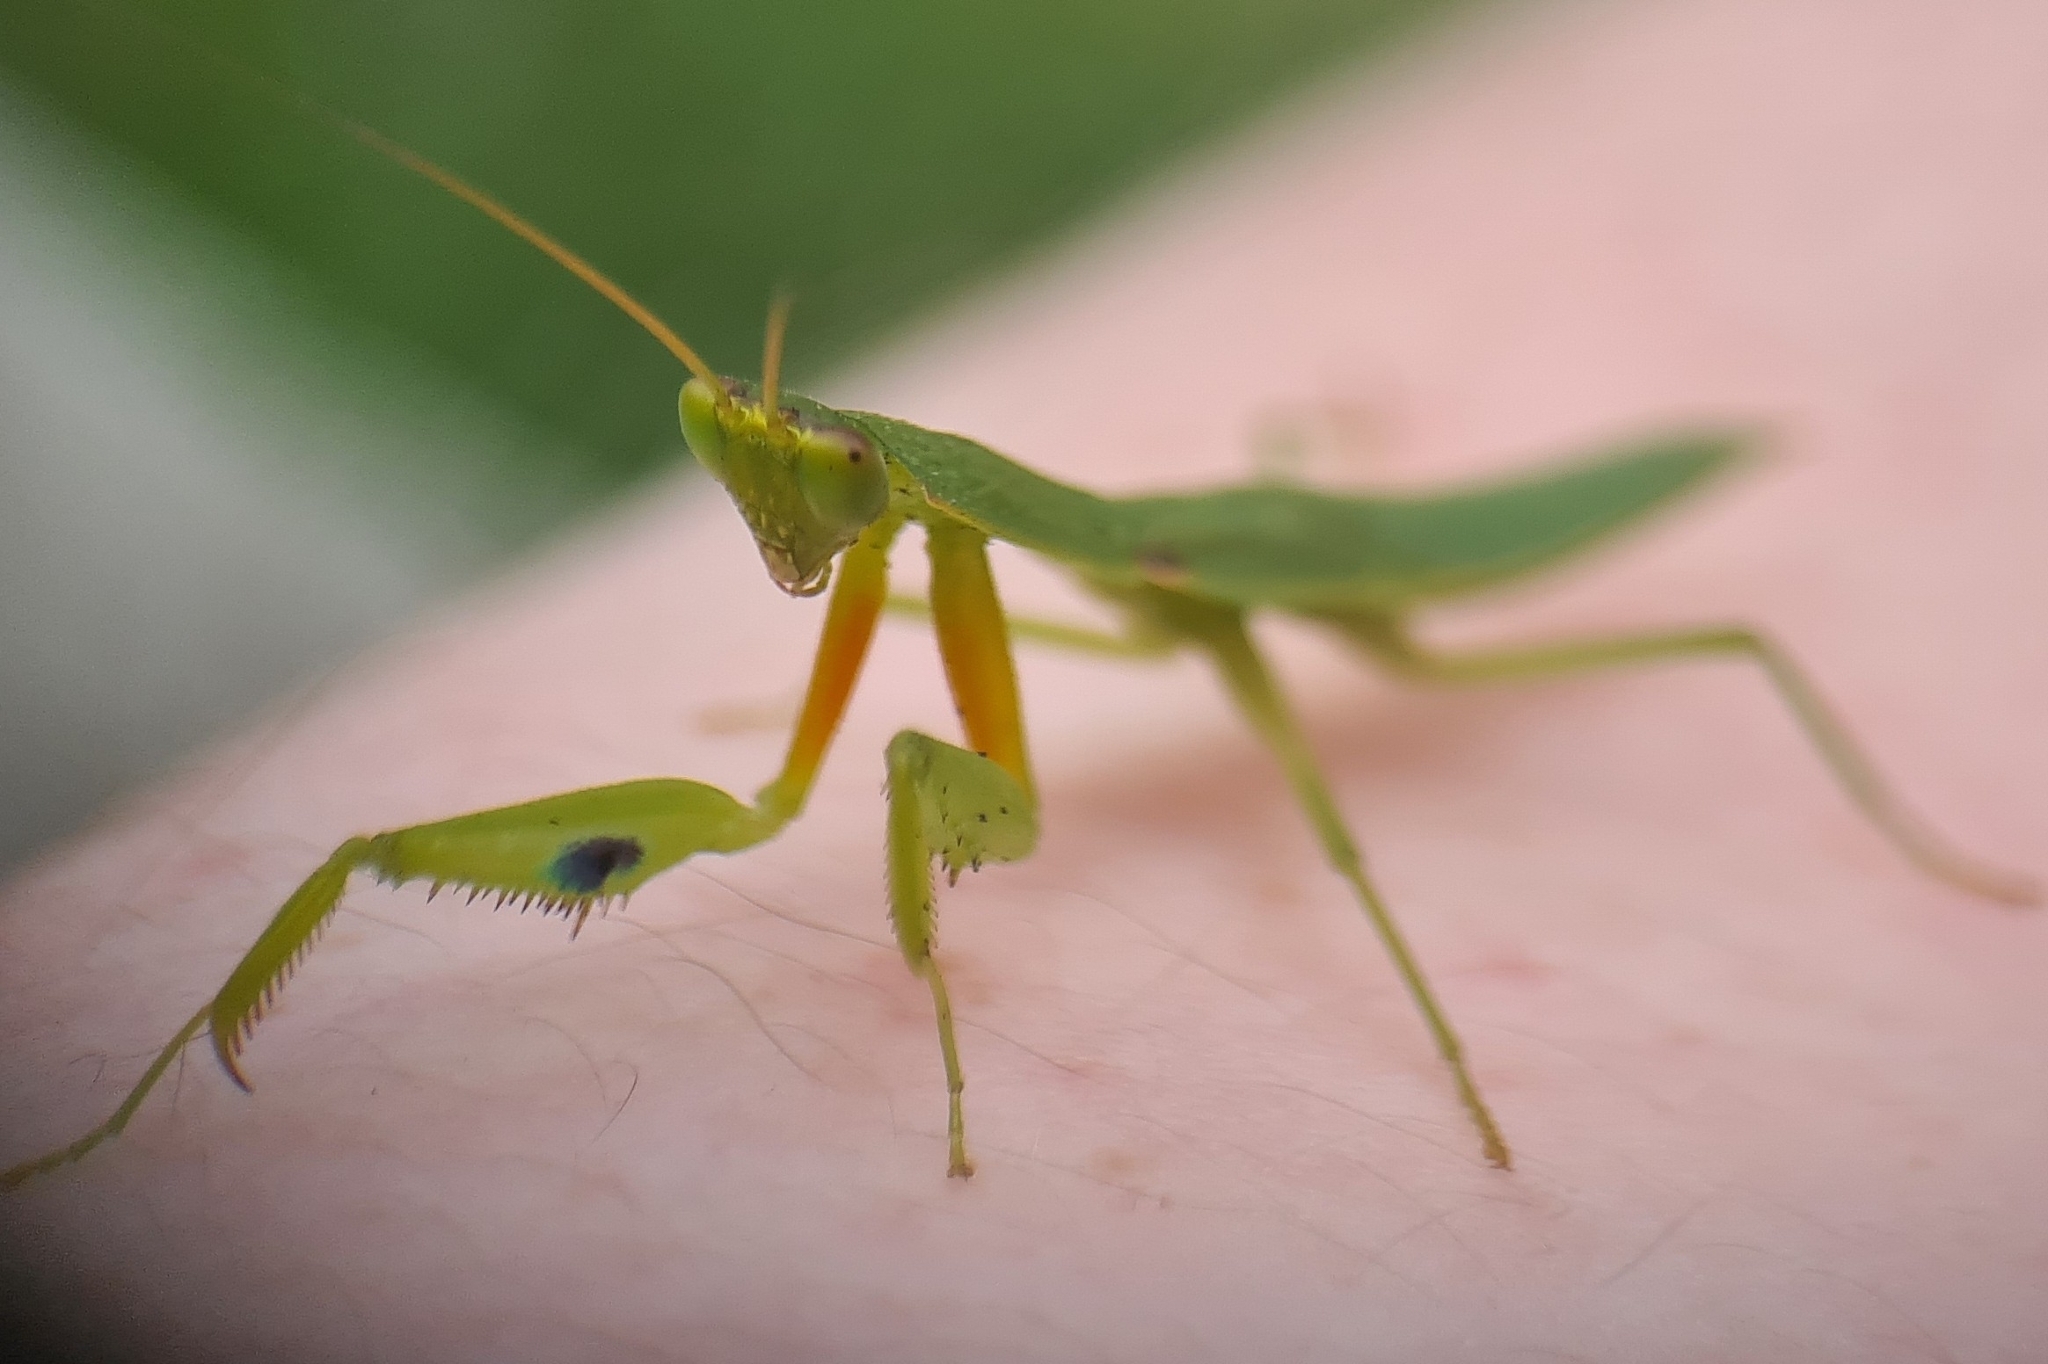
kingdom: Animalia
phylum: Arthropoda
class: Insecta
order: Mantodea
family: Mantidae
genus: Orthodera
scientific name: Orthodera ministralis
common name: Mantis
